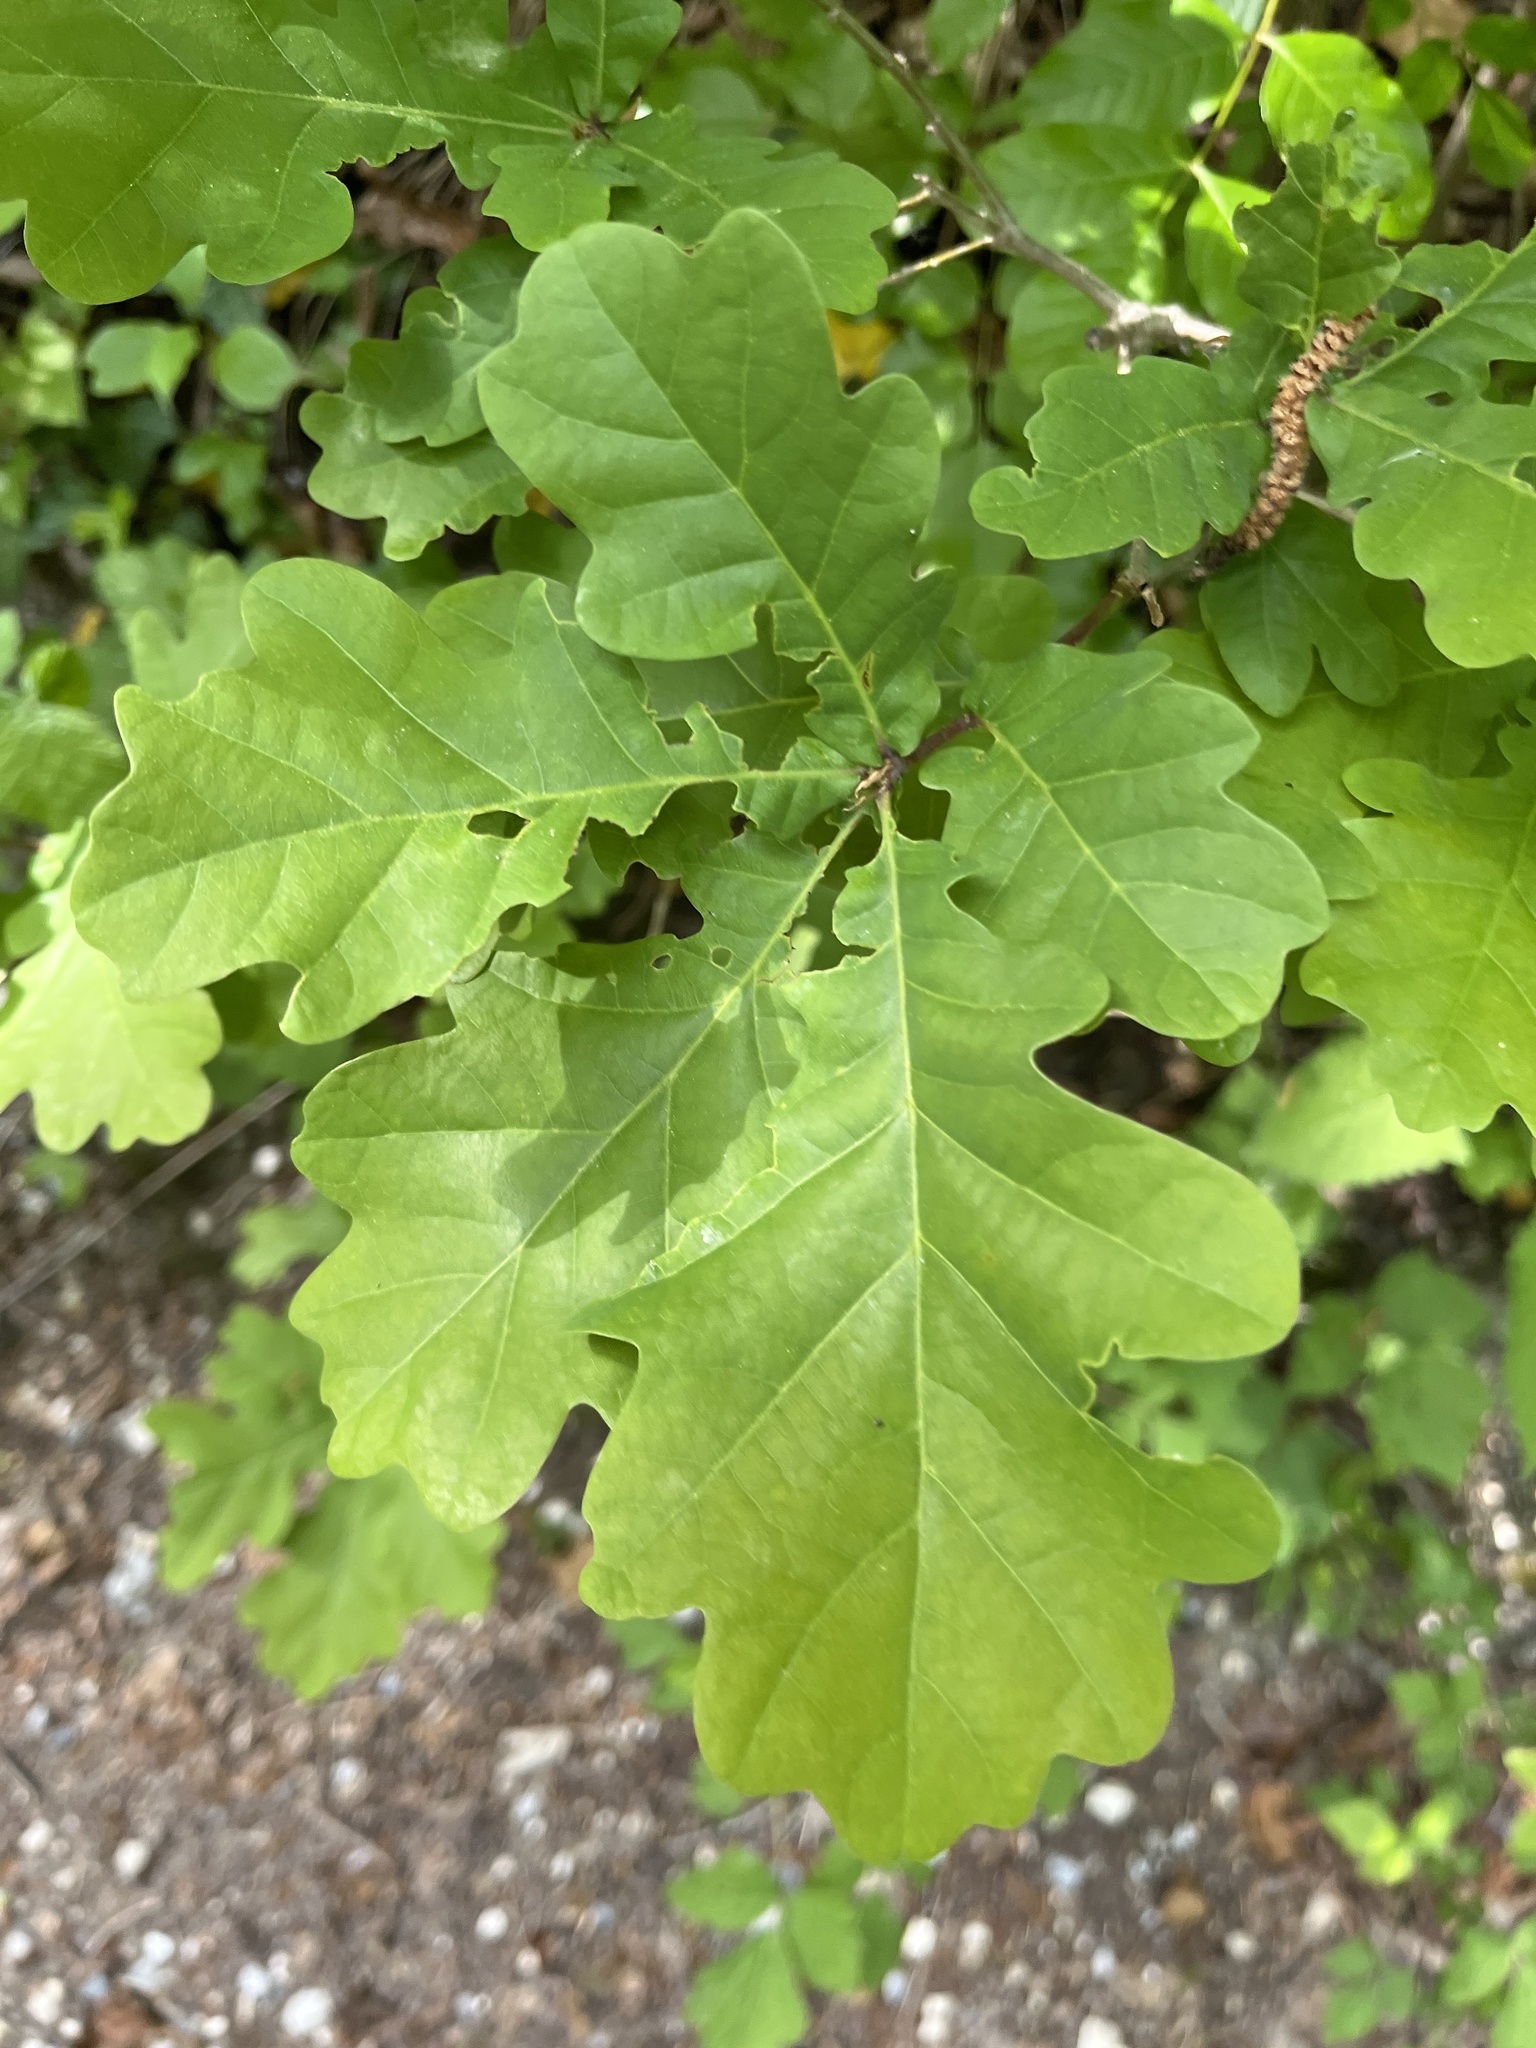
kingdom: Plantae
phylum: Tracheophyta
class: Magnoliopsida
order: Fagales
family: Fagaceae
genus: Quercus
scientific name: Quercus robur
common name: Pedunculate oak
